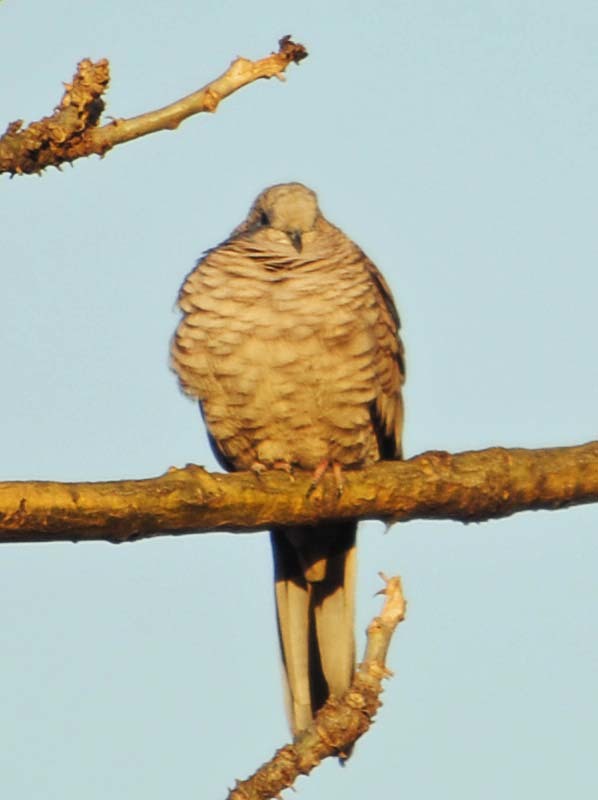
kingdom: Animalia
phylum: Chordata
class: Aves
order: Columbiformes
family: Columbidae
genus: Columbina
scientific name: Columbina inca
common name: Inca dove
